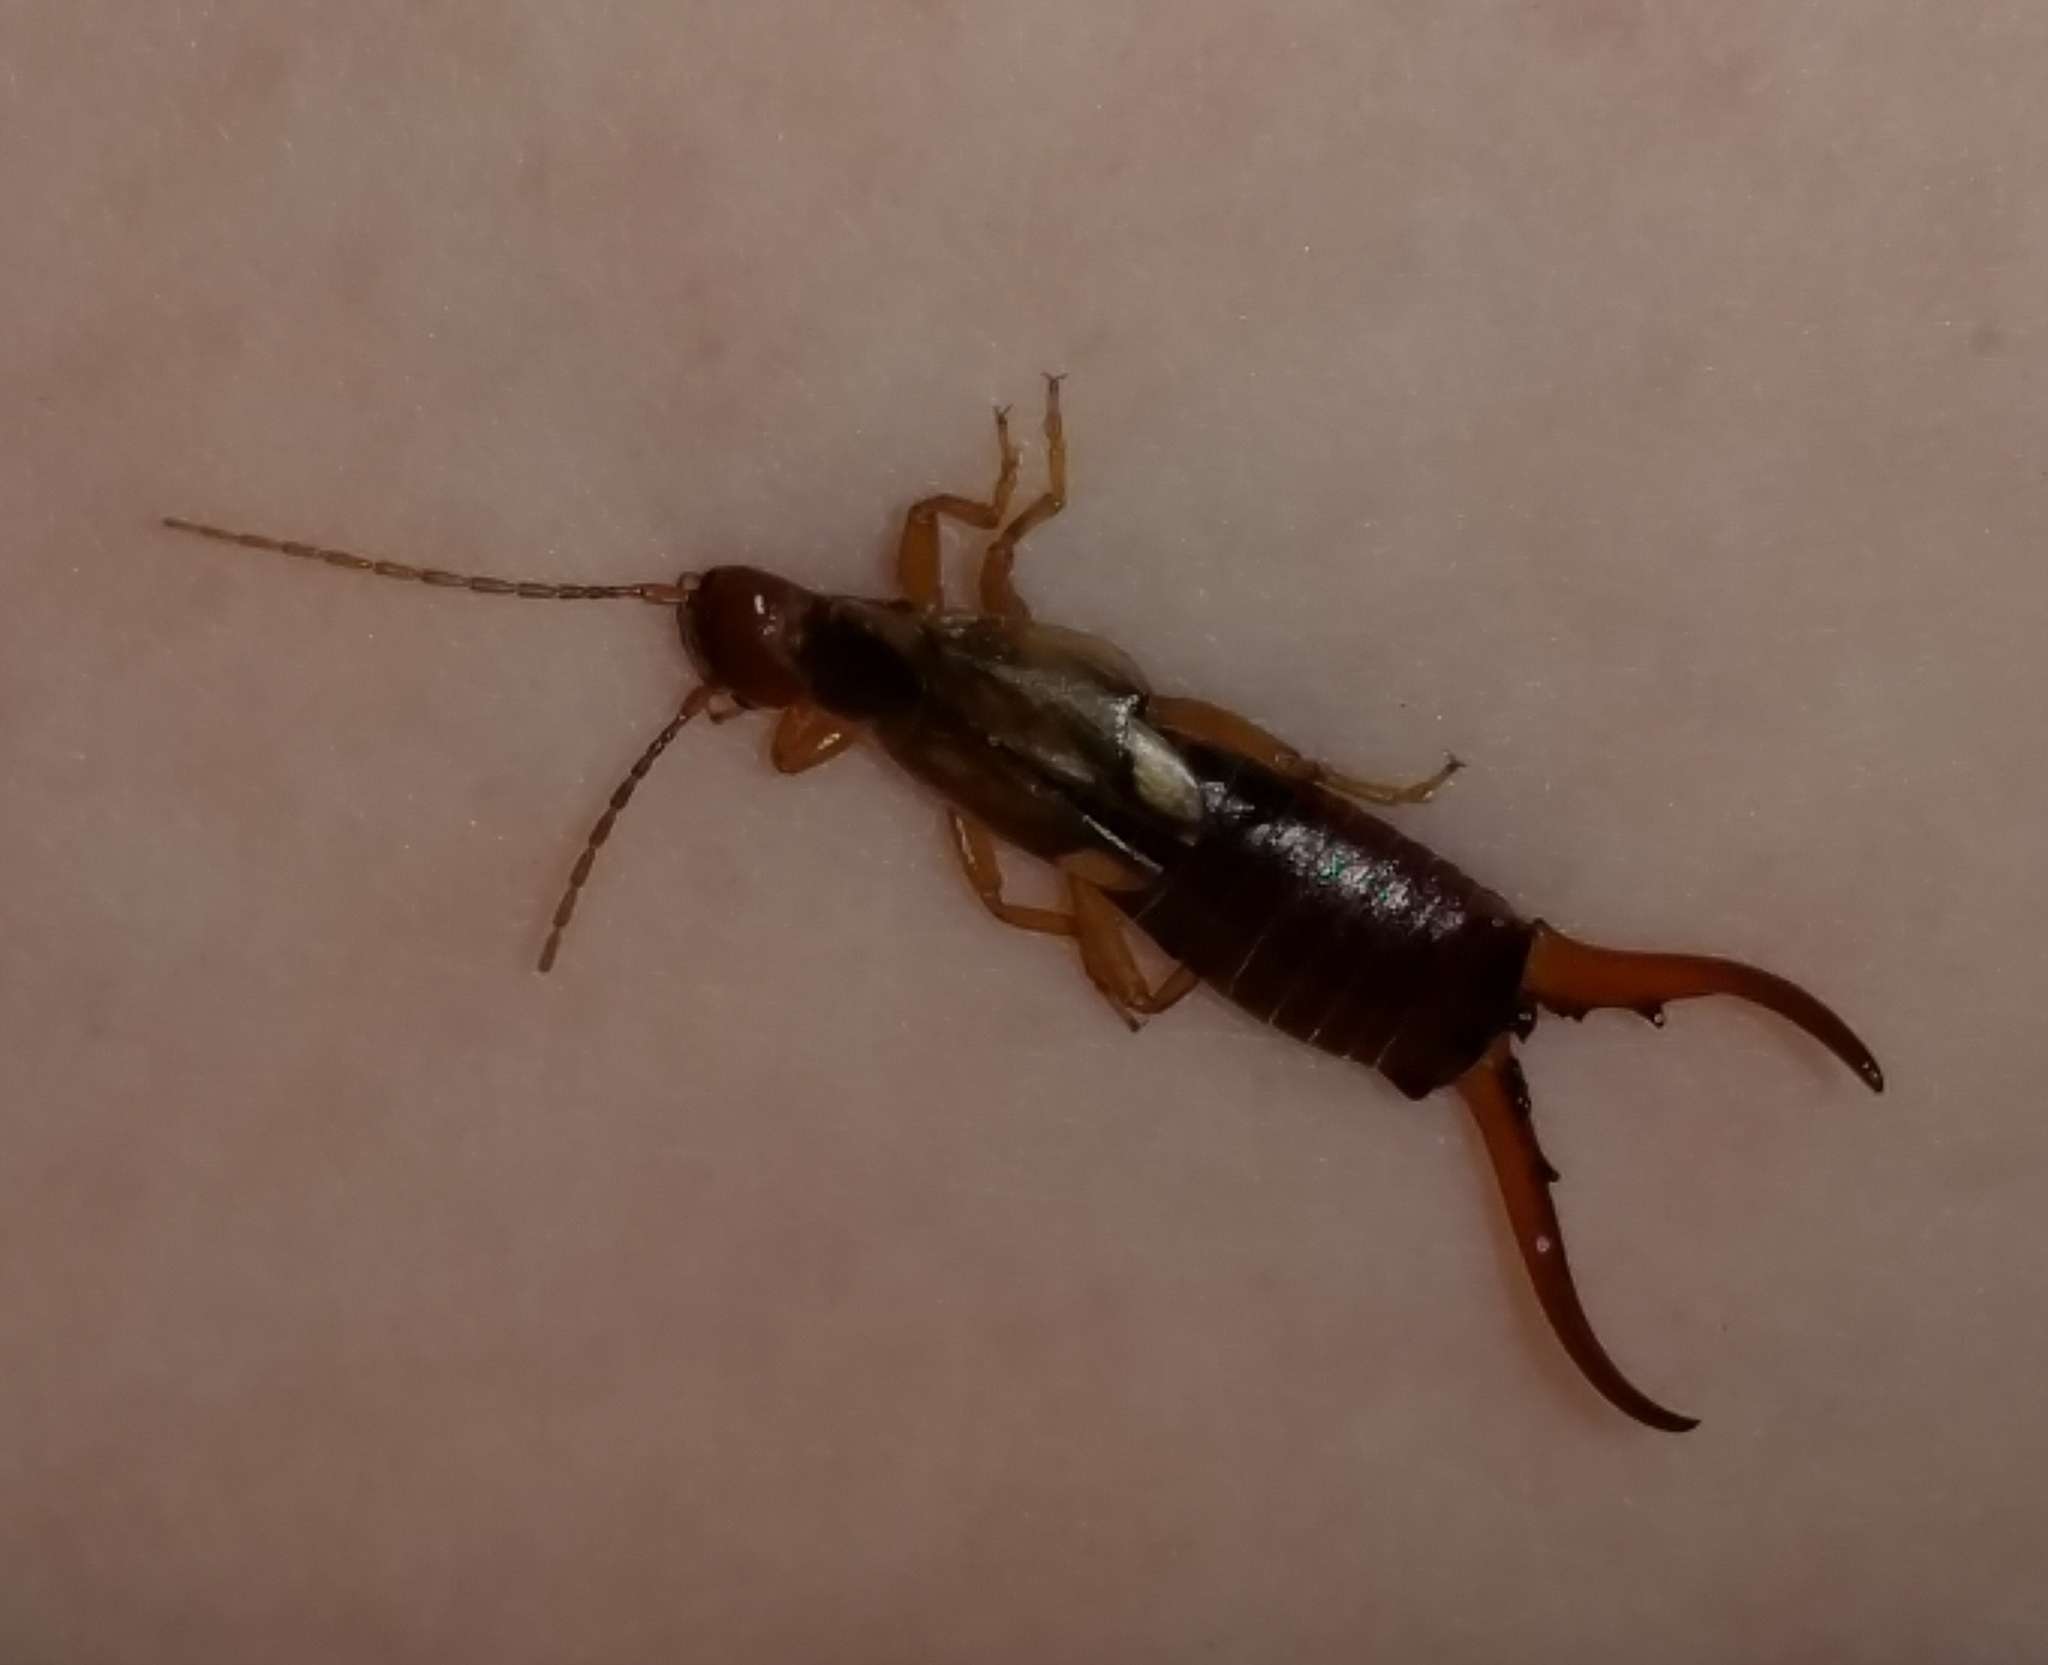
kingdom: Animalia
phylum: Arthropoda
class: Insecta
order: Dermaptera
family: Forficulidae
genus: Forficula
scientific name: Forficula
